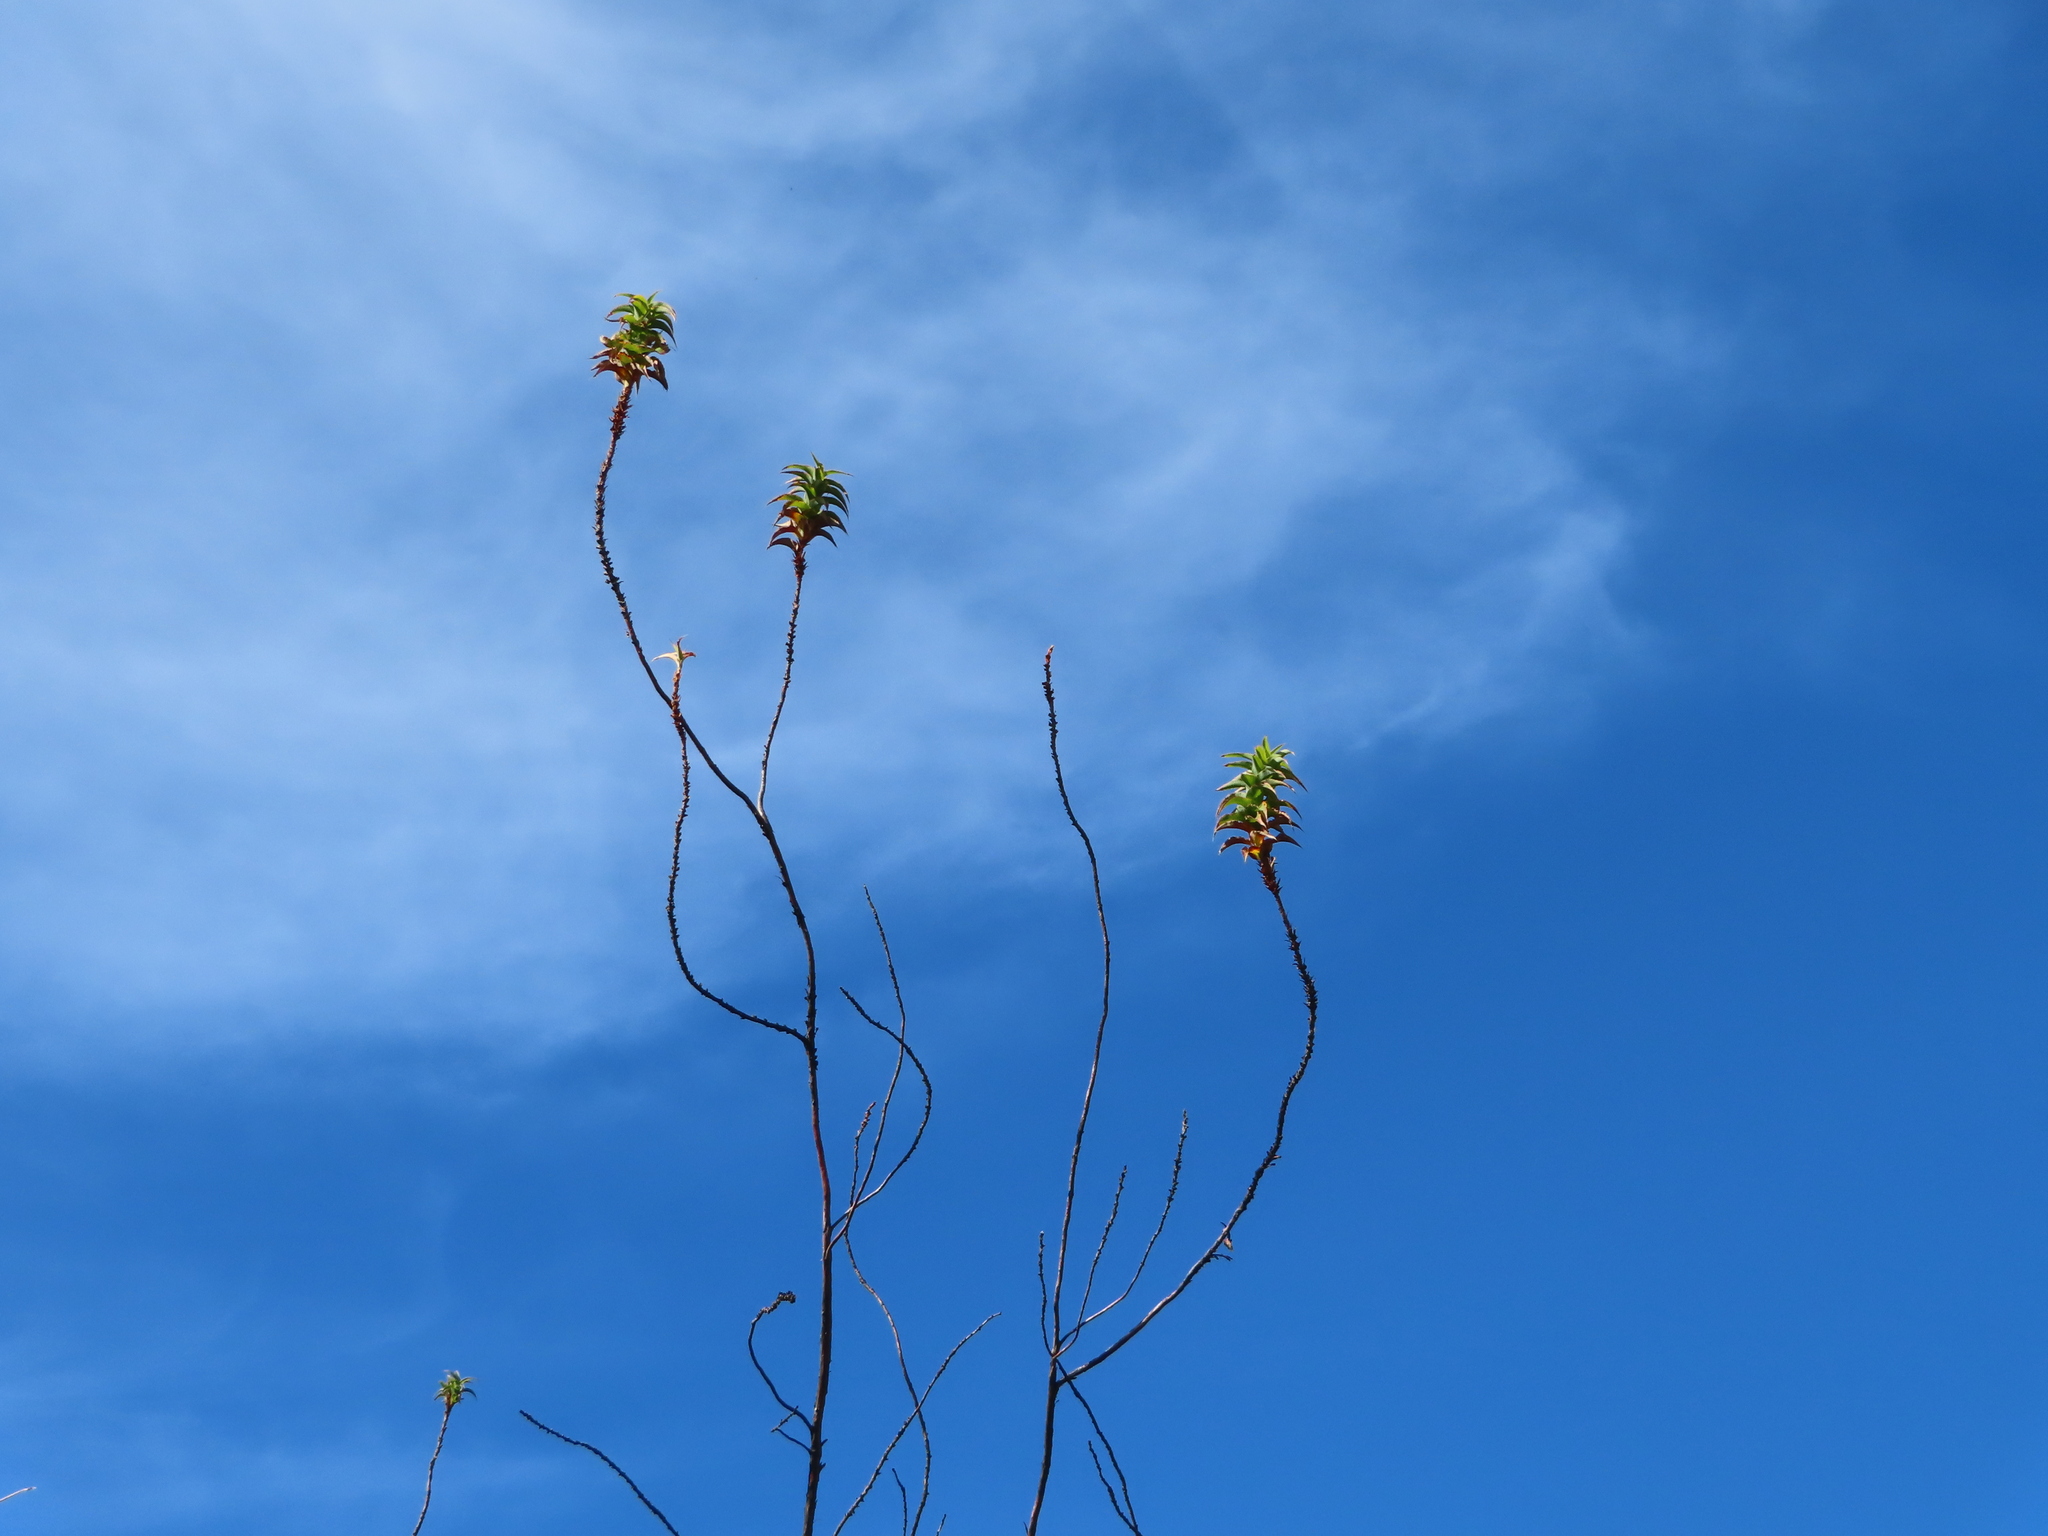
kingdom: Plantae
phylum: Tracheophyta
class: Magnoliopsida
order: Rosales
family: Rosaceae
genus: Cliffortia
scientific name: Cliffortia recurvata
